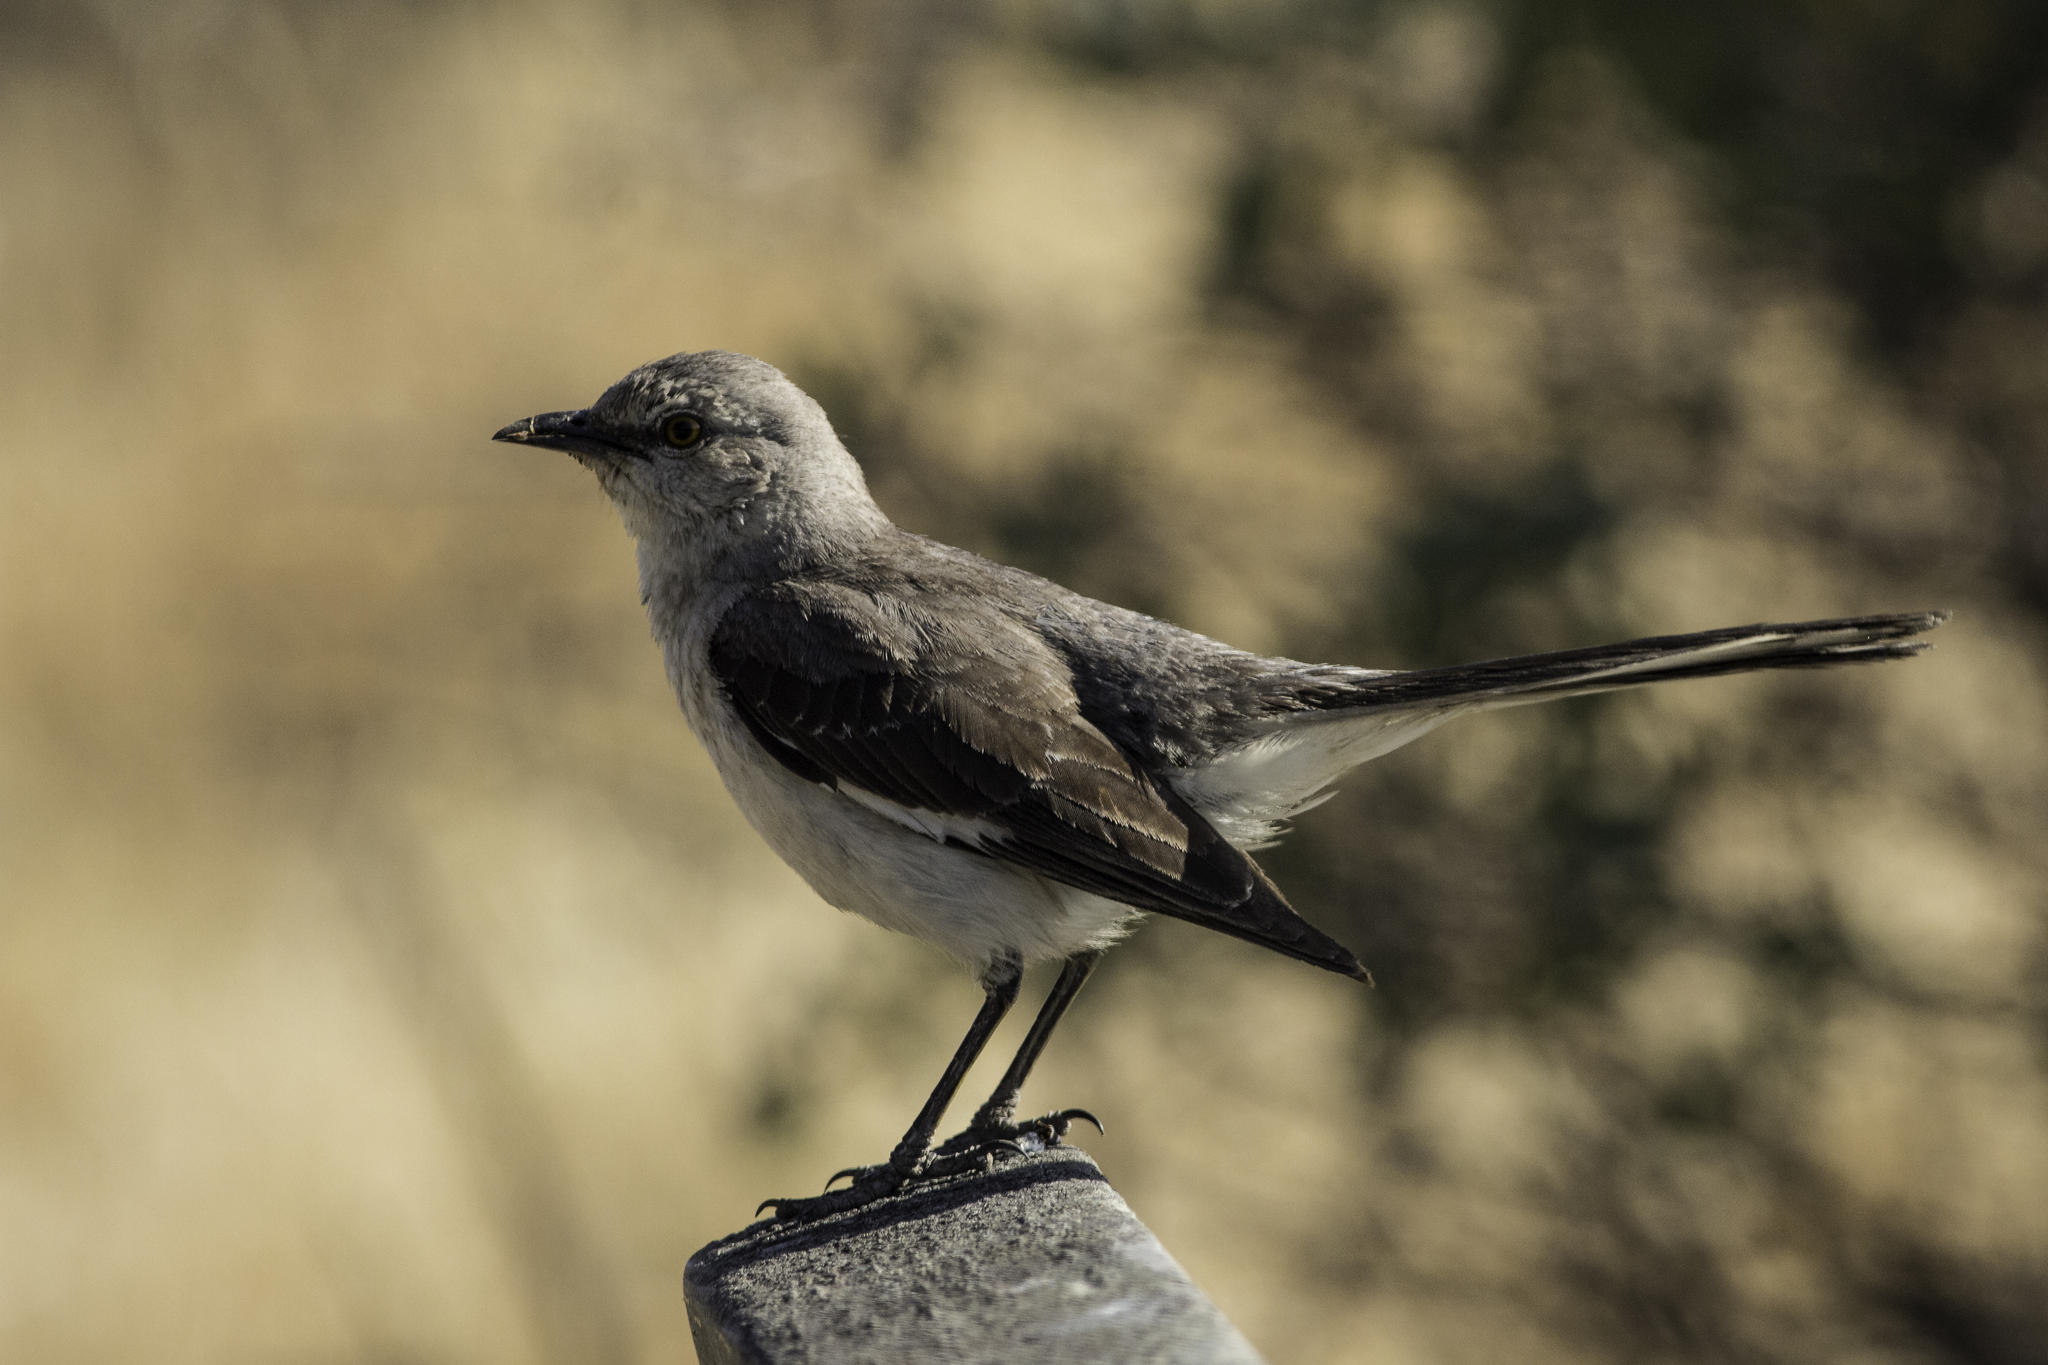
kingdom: Animalia
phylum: Chordata
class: Aves
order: Passeriformes
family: Mimidae
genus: Mimus
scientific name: Mimus polyglottos
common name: Northern mockingbird
